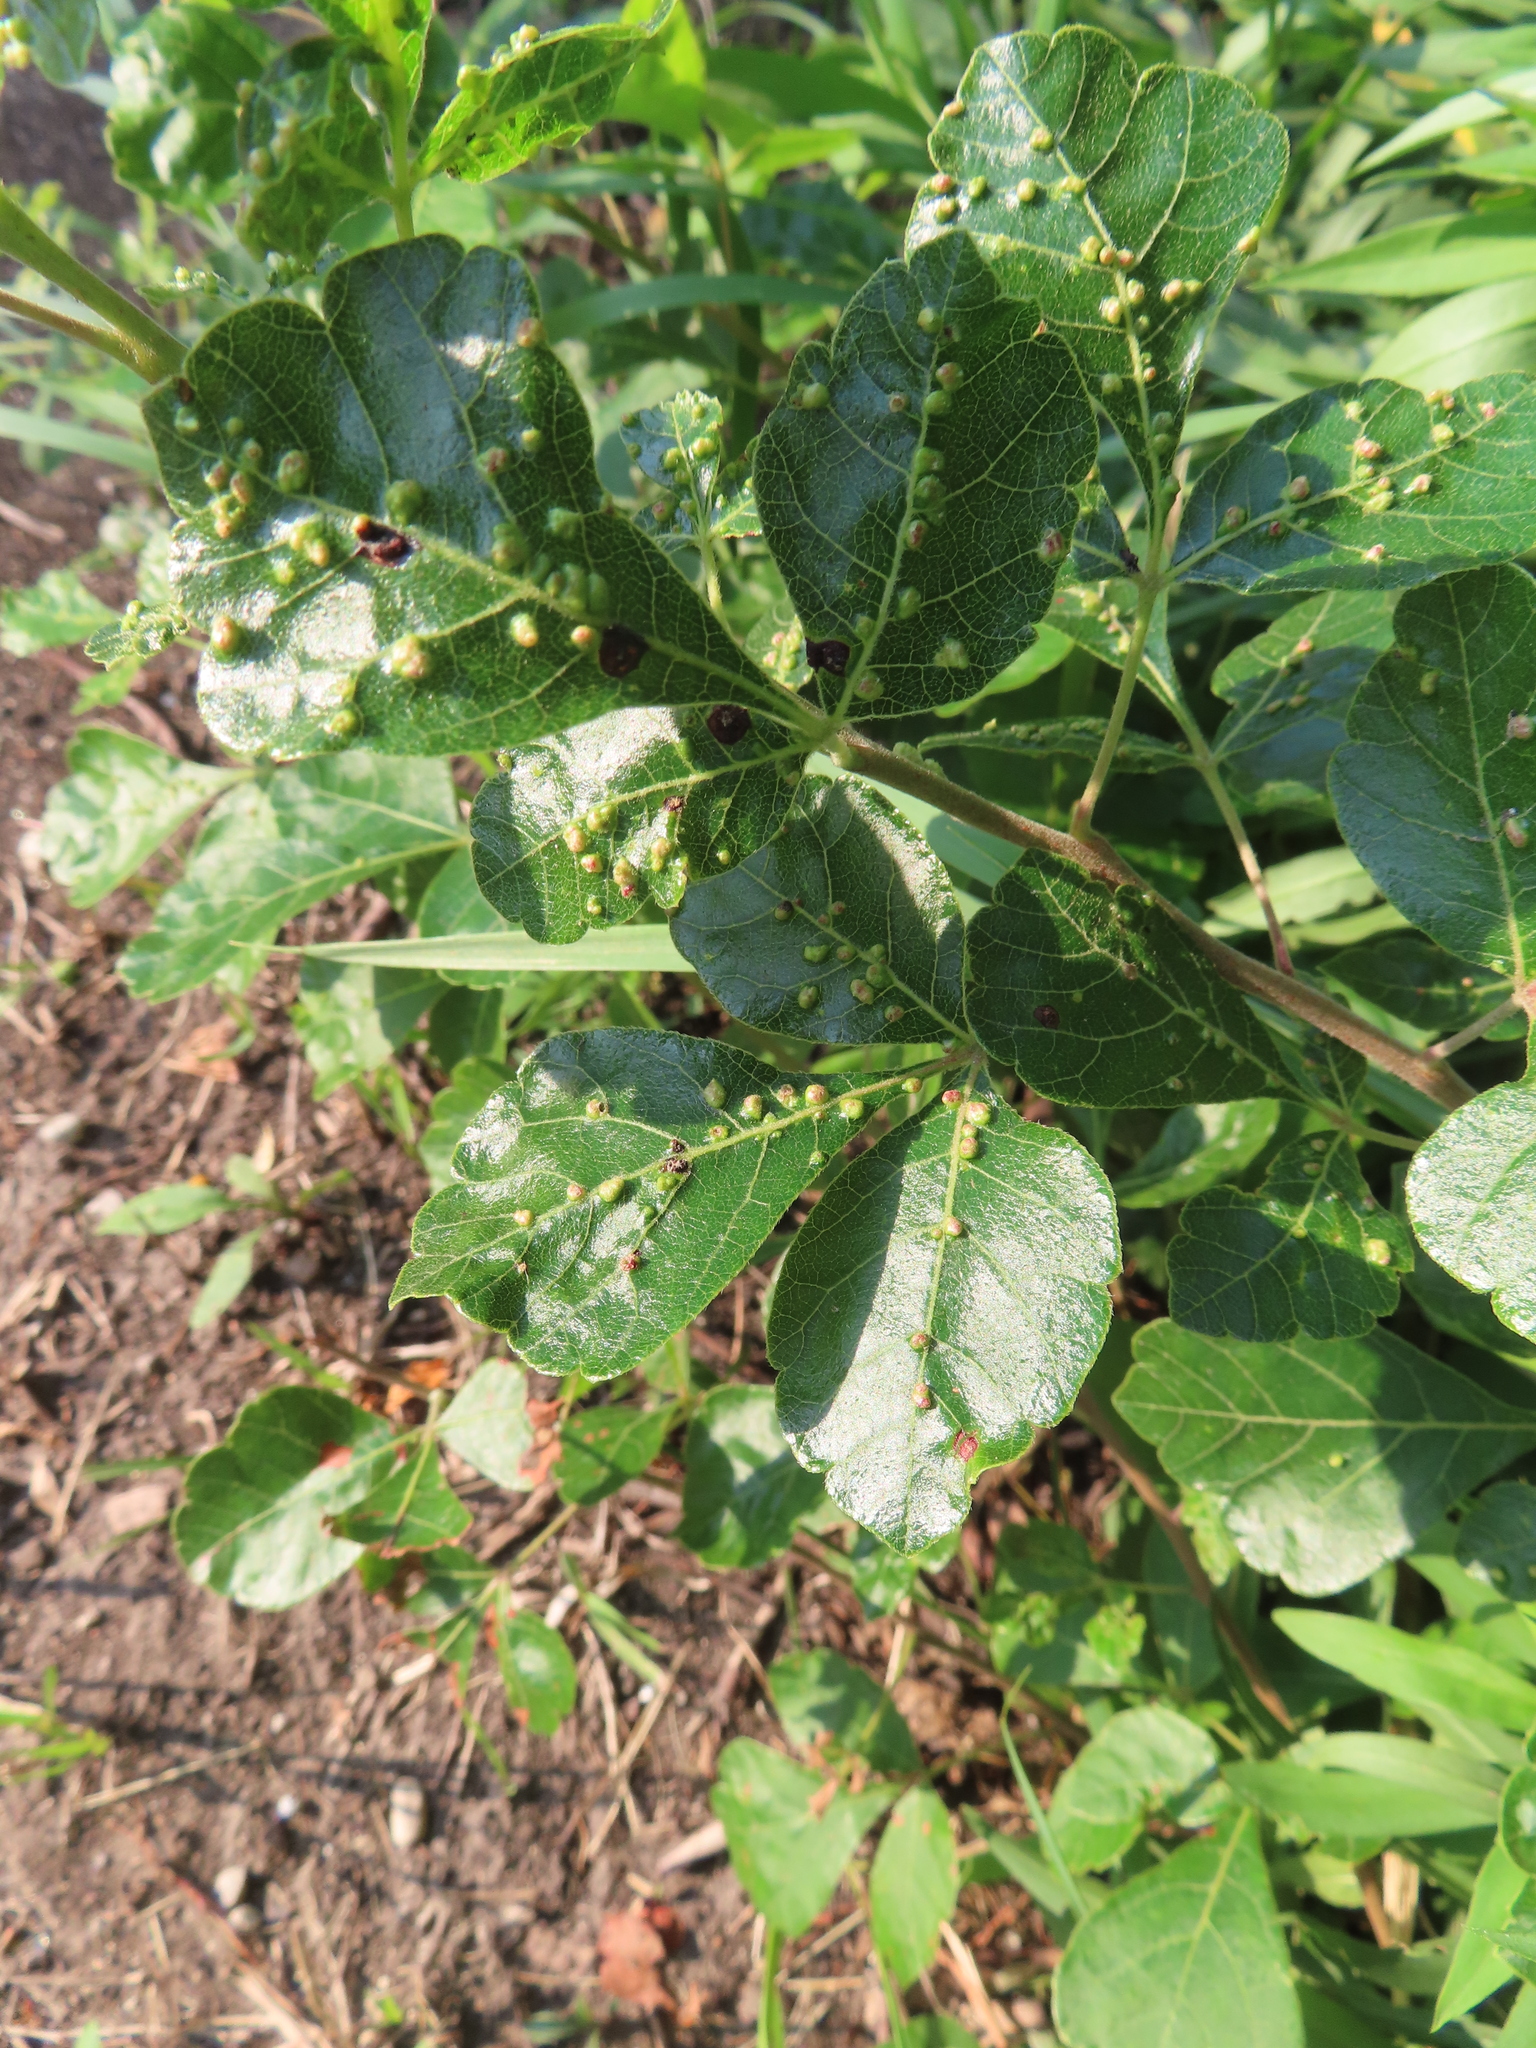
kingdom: Animalia
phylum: Arthropoda
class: Arachnida
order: Trombidiformes
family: Eriophyidae
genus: Aculops
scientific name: Aculops
